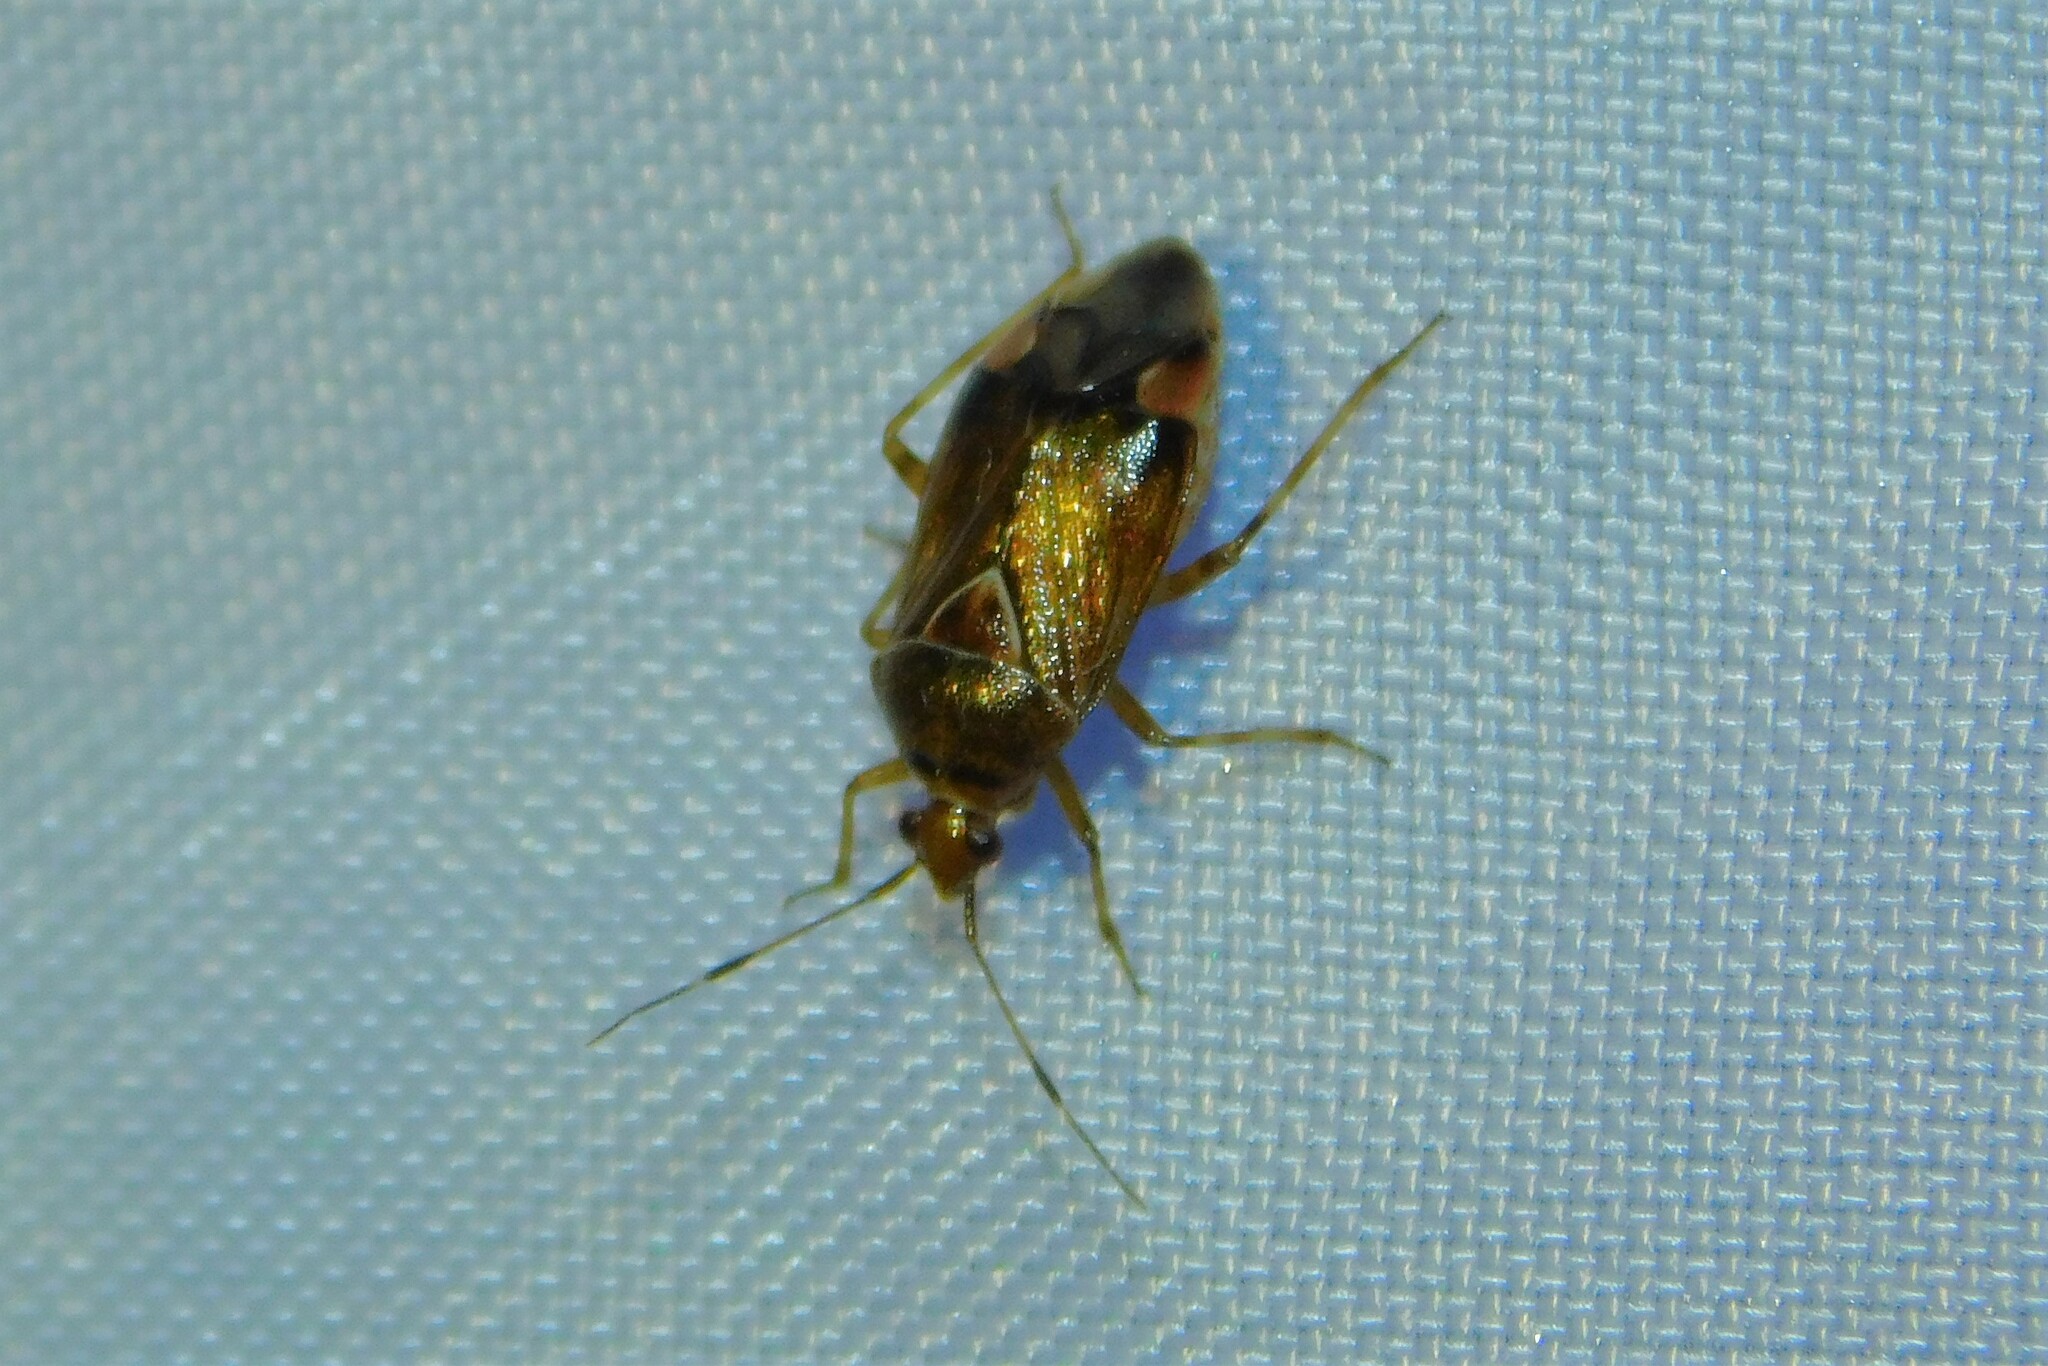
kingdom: Animalia
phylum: Arthropoda
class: Insecta
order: Hemiptera
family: Miridae
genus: Deraeocoris
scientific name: Deraeocoris flavilinea
